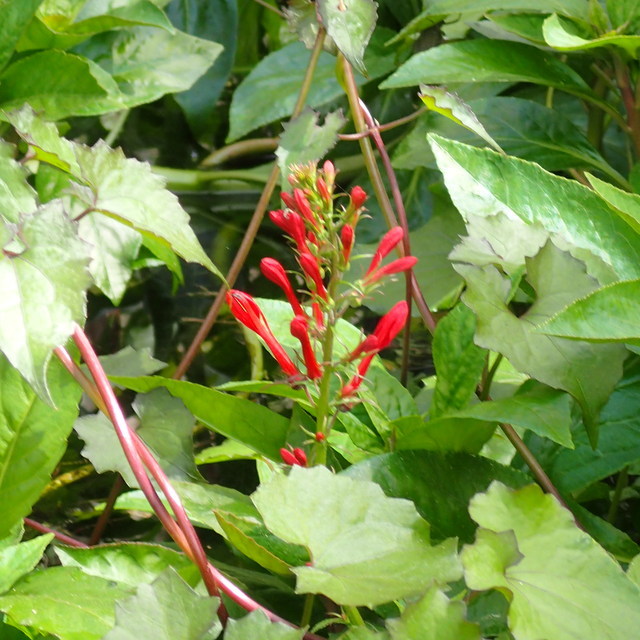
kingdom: Plantae
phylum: Tracheophyta
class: Magnoliopsida
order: Asterales
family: Campanulaceae
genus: Lobelia
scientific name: Lobelia cardinalis
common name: Cardinal flower
